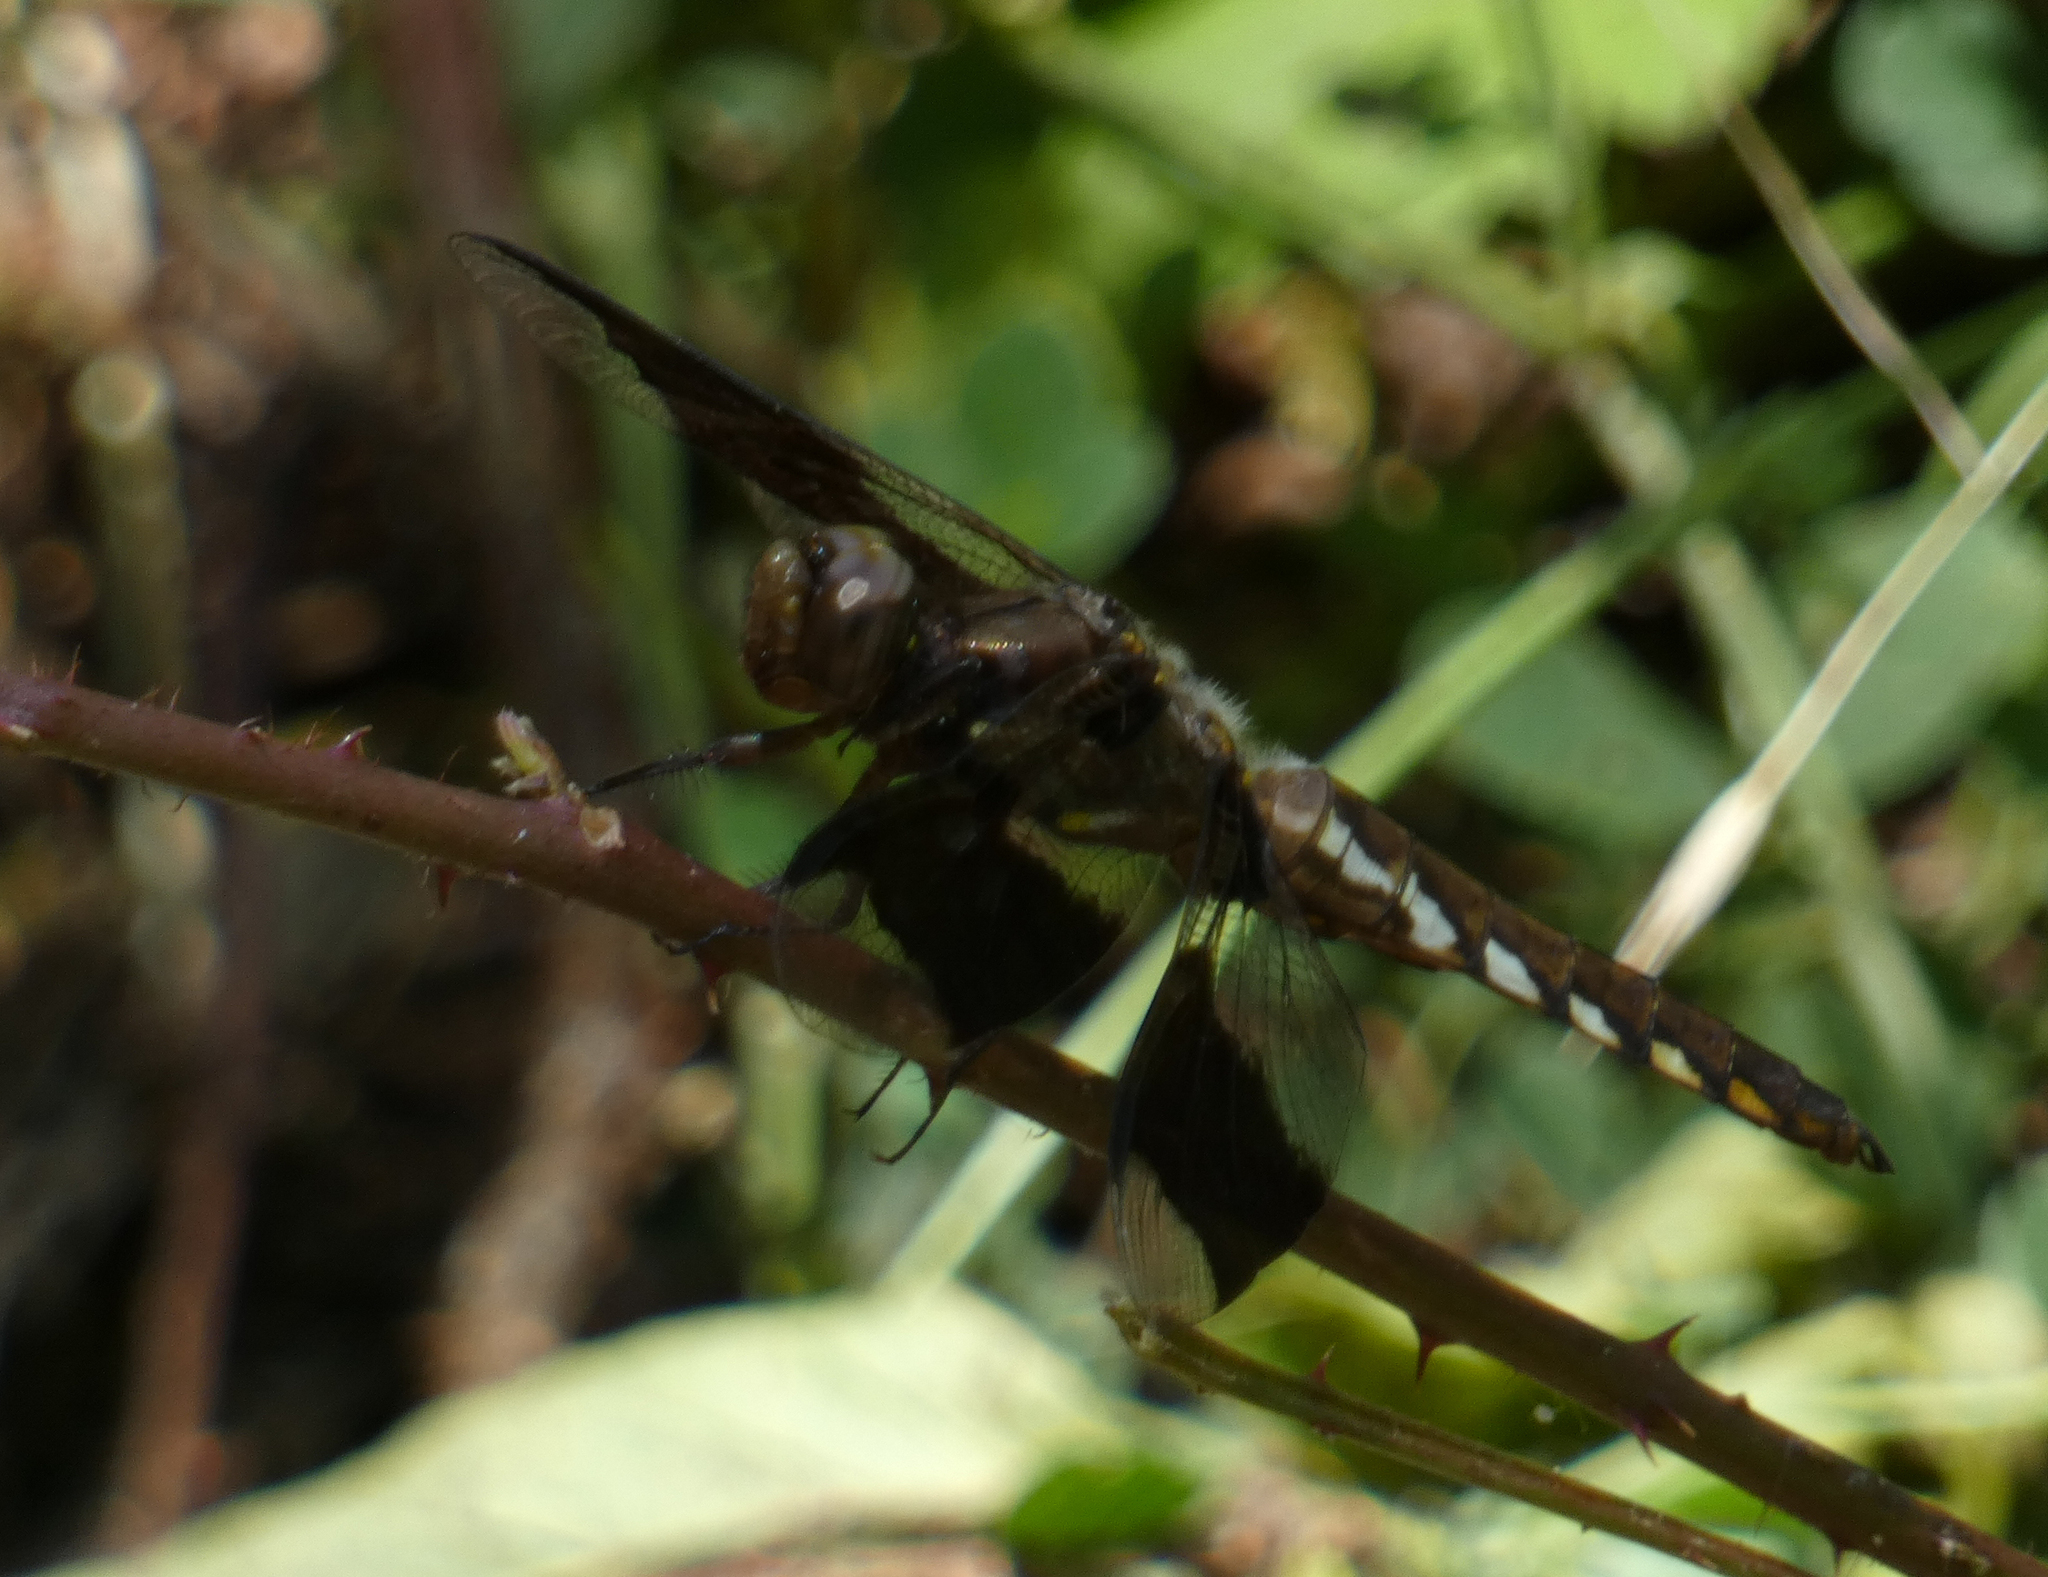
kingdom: Animalia
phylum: Arthropoda
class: Insecta
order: Odonata
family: Libellulidae
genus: Plathemis
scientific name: Plathemis lydia
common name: Common whitetail
